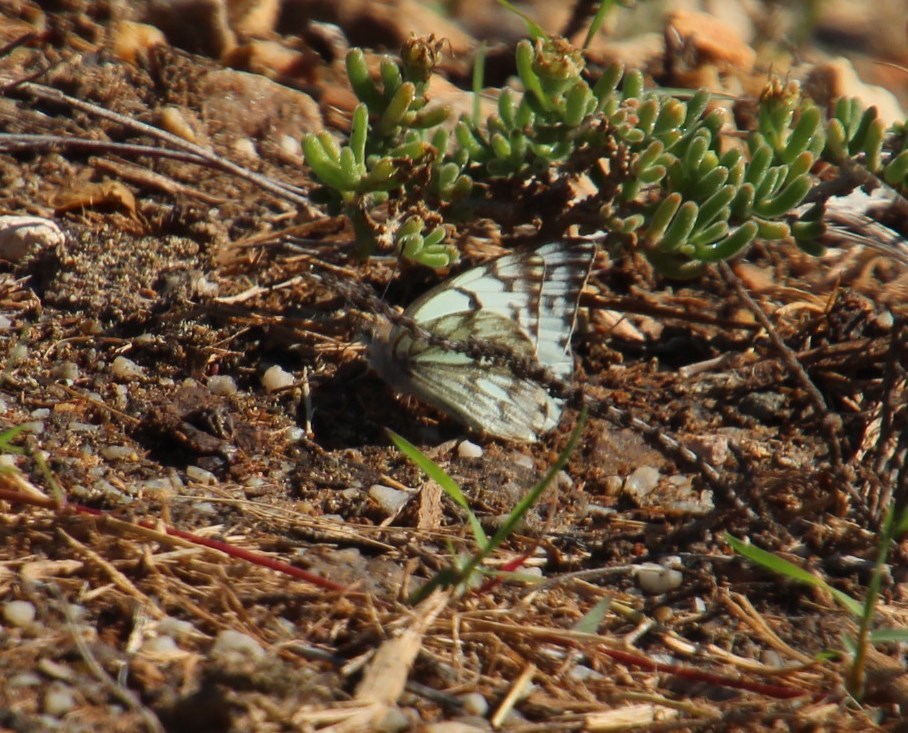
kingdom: Animalia
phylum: Arthropoda
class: Insecta
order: Lepidoptera
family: Pieridae
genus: Belenois
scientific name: Belenois gidica
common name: Pointed caper white
